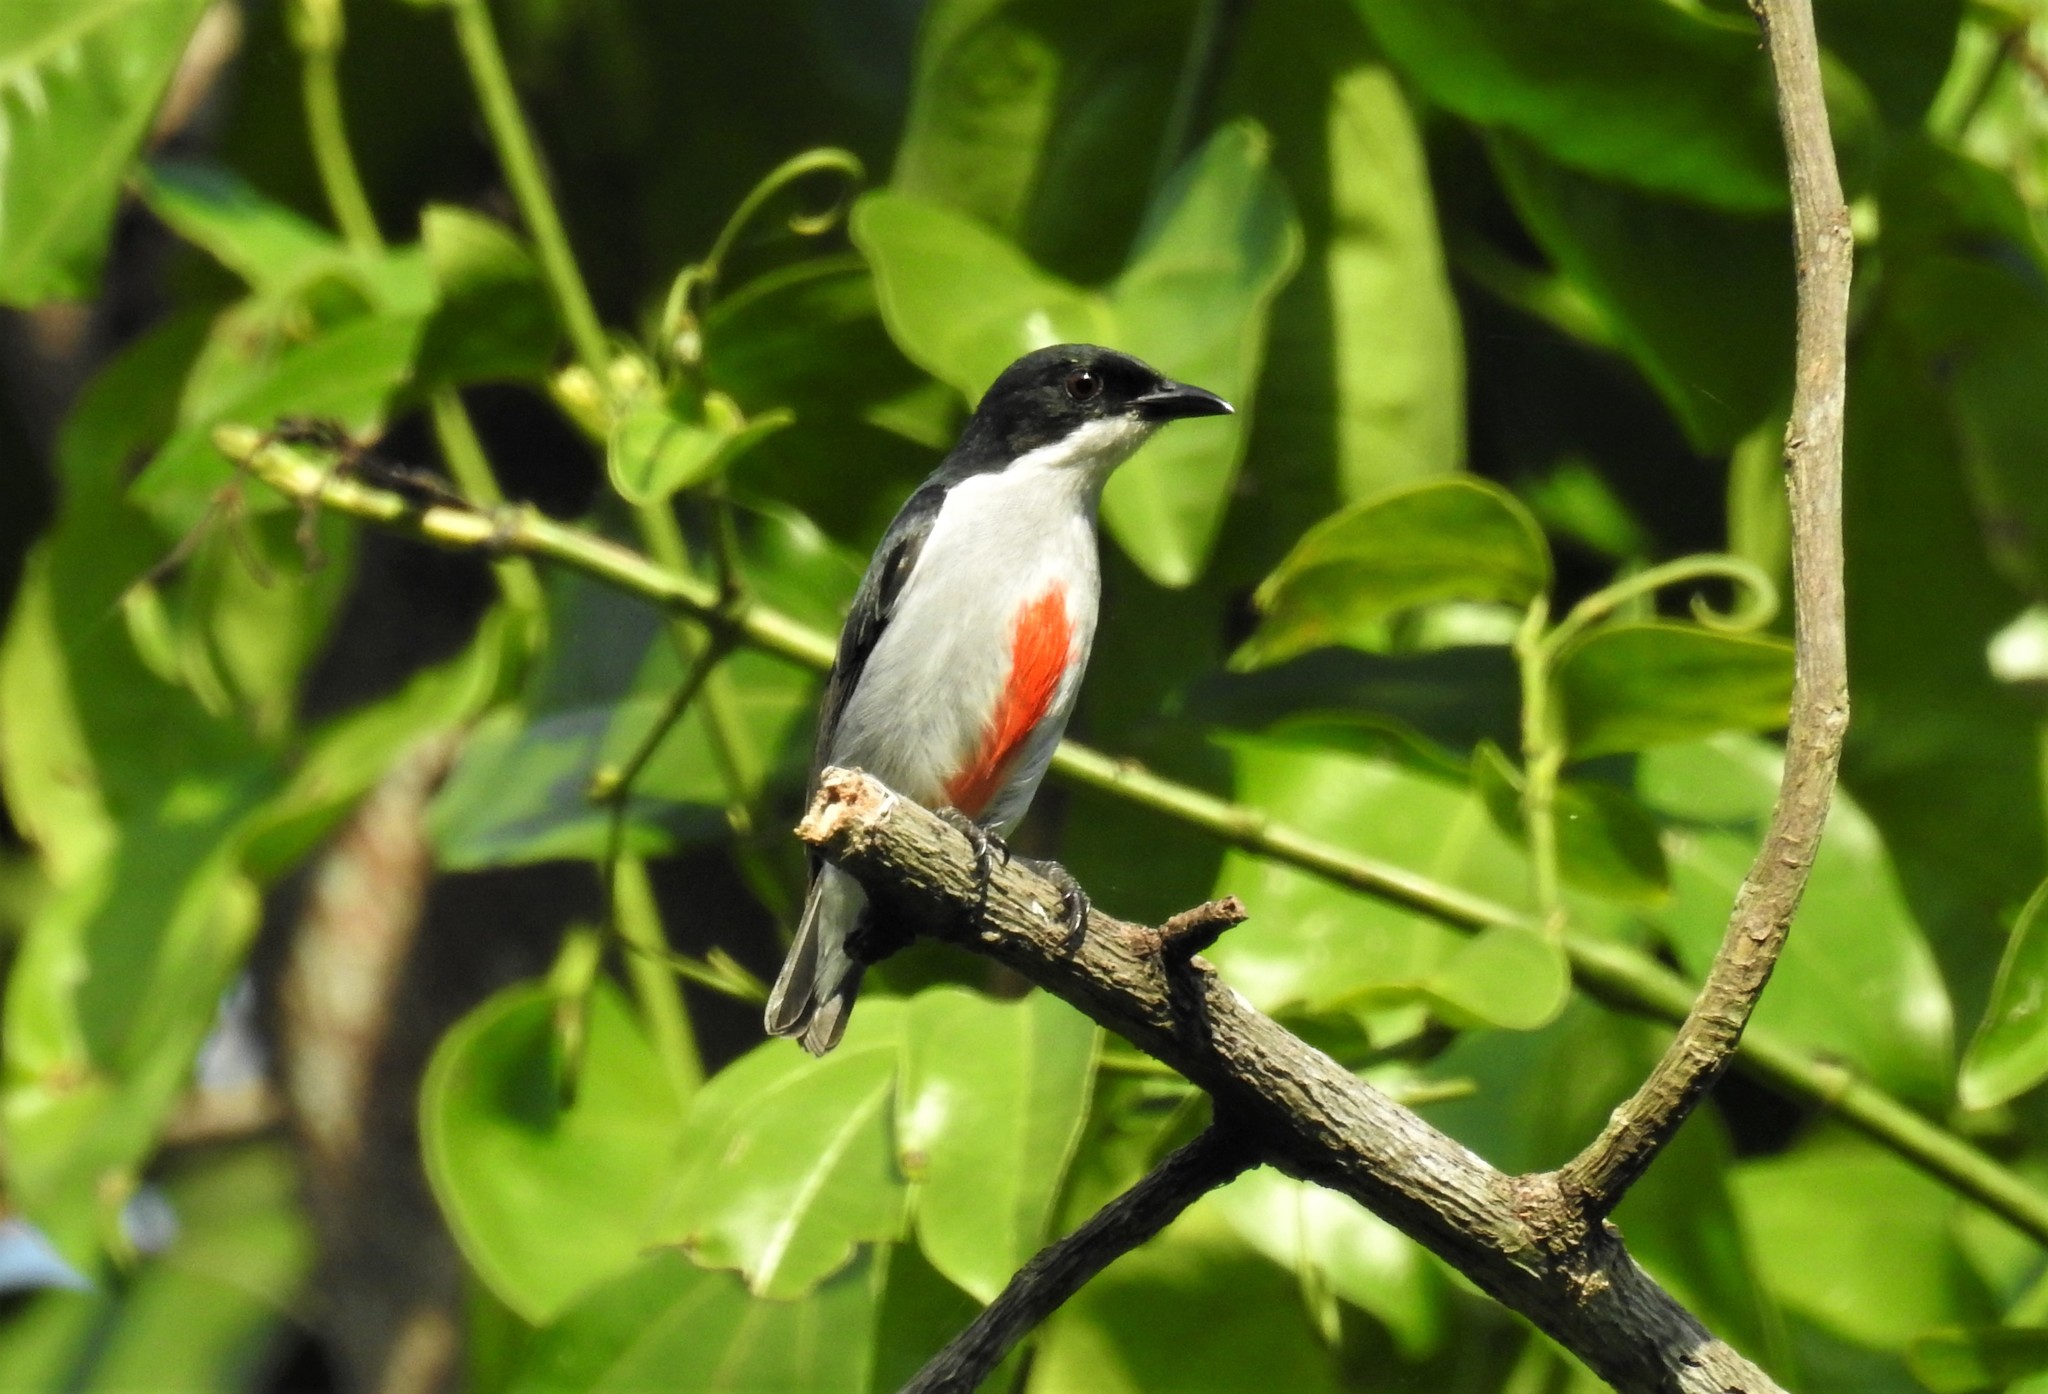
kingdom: Animalia
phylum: Chordata
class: Aves
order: Passeriformes
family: Dicaeidae
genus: Dicaeum
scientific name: Dicaeum australe
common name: Red-keeled flowerpecker
